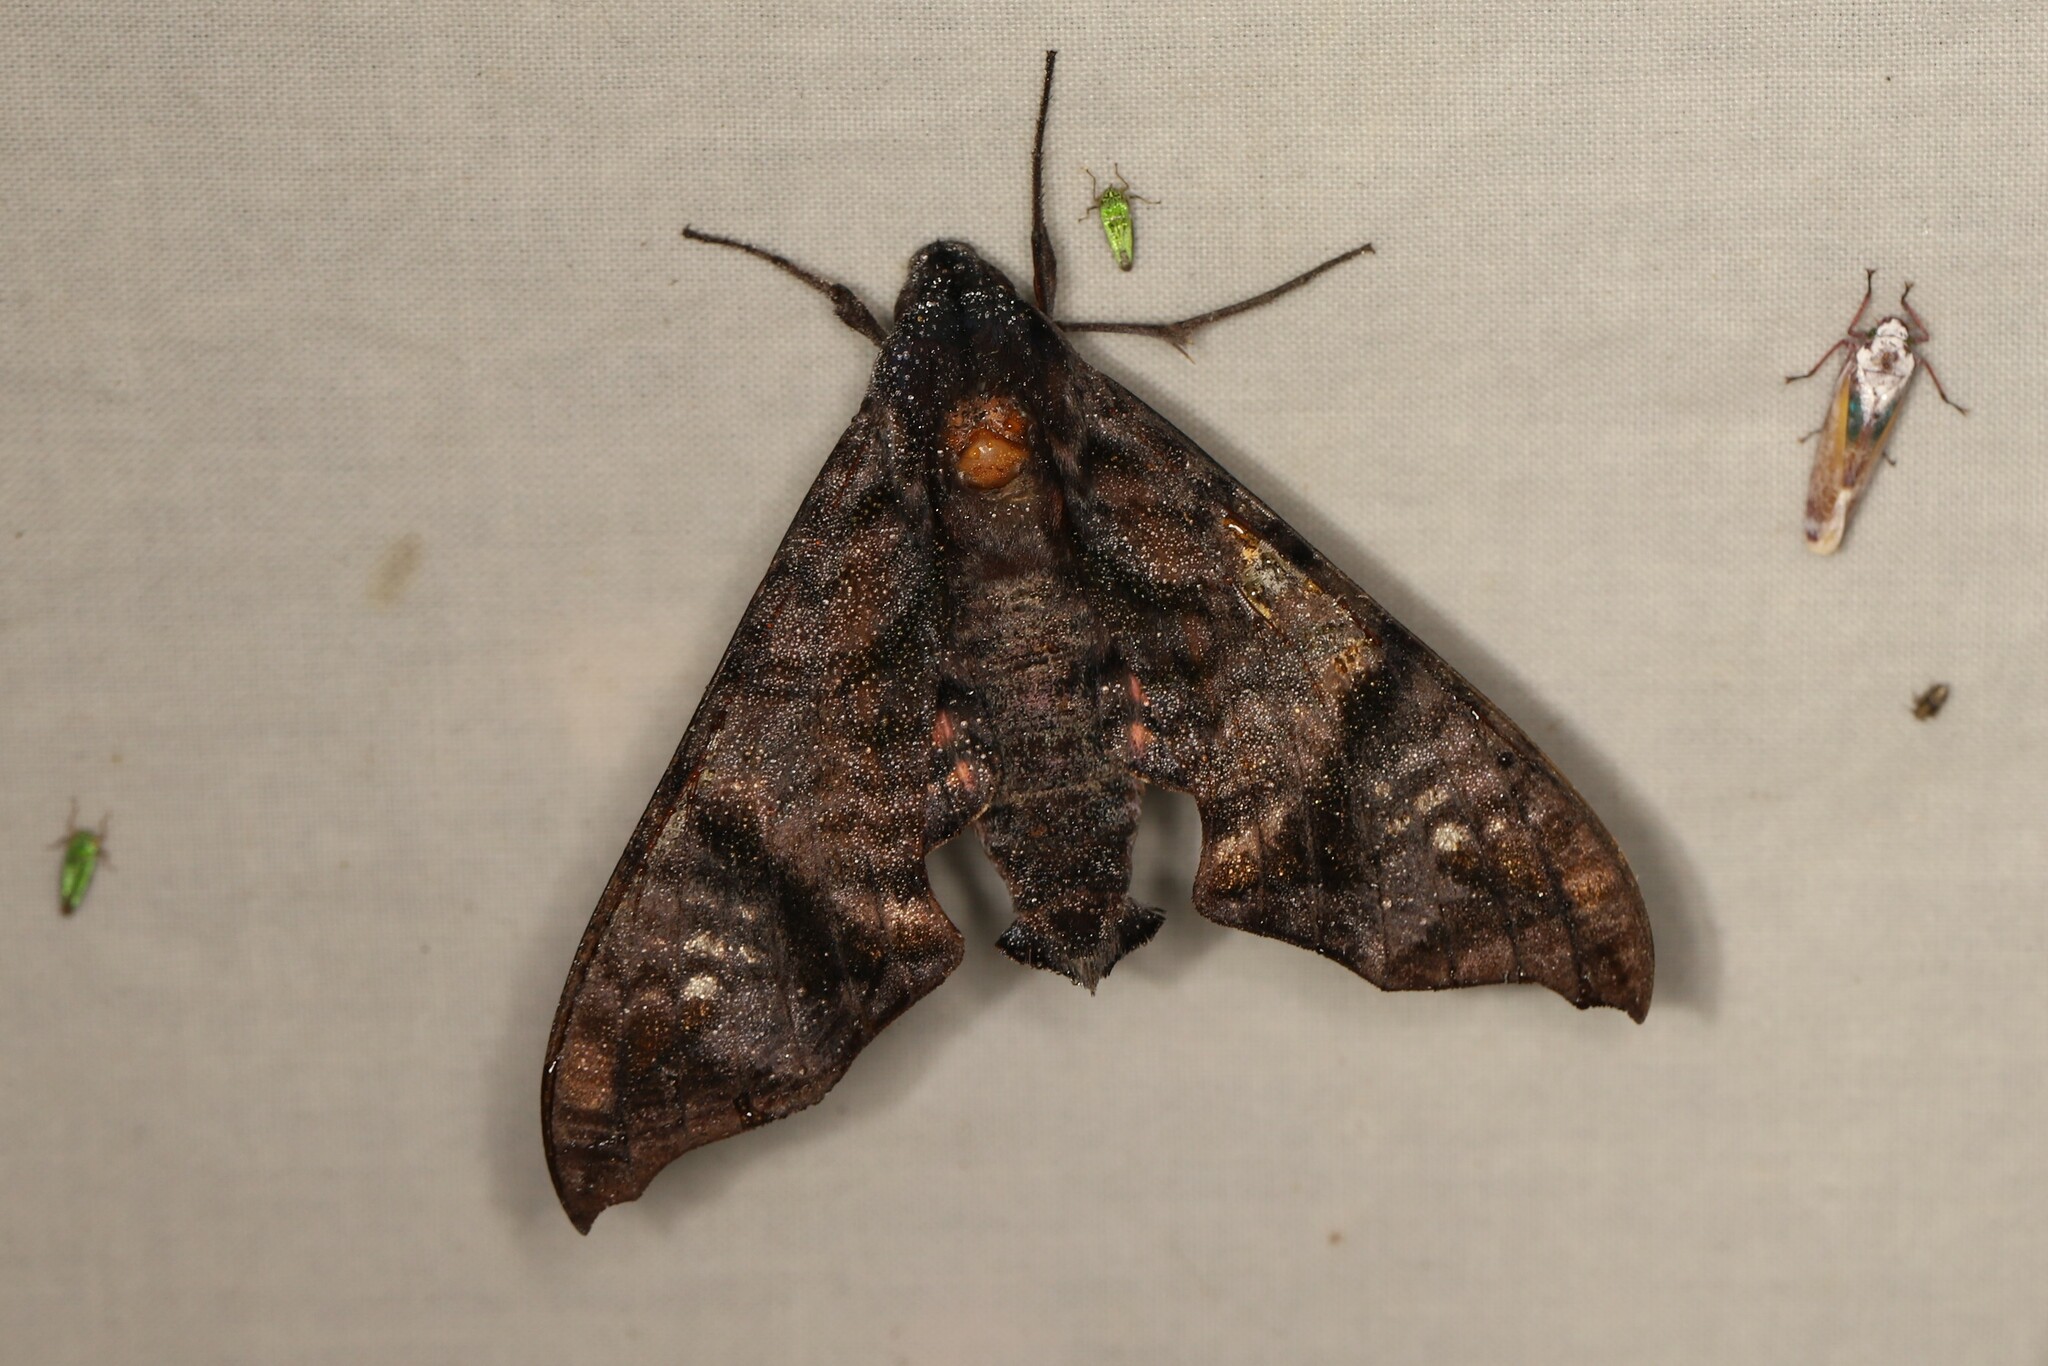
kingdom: Animalia
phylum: Arthropoda
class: Insecta
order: Lepidoptera
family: Sphingidae
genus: Nyceryx
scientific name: Nyceryx hyposticta
